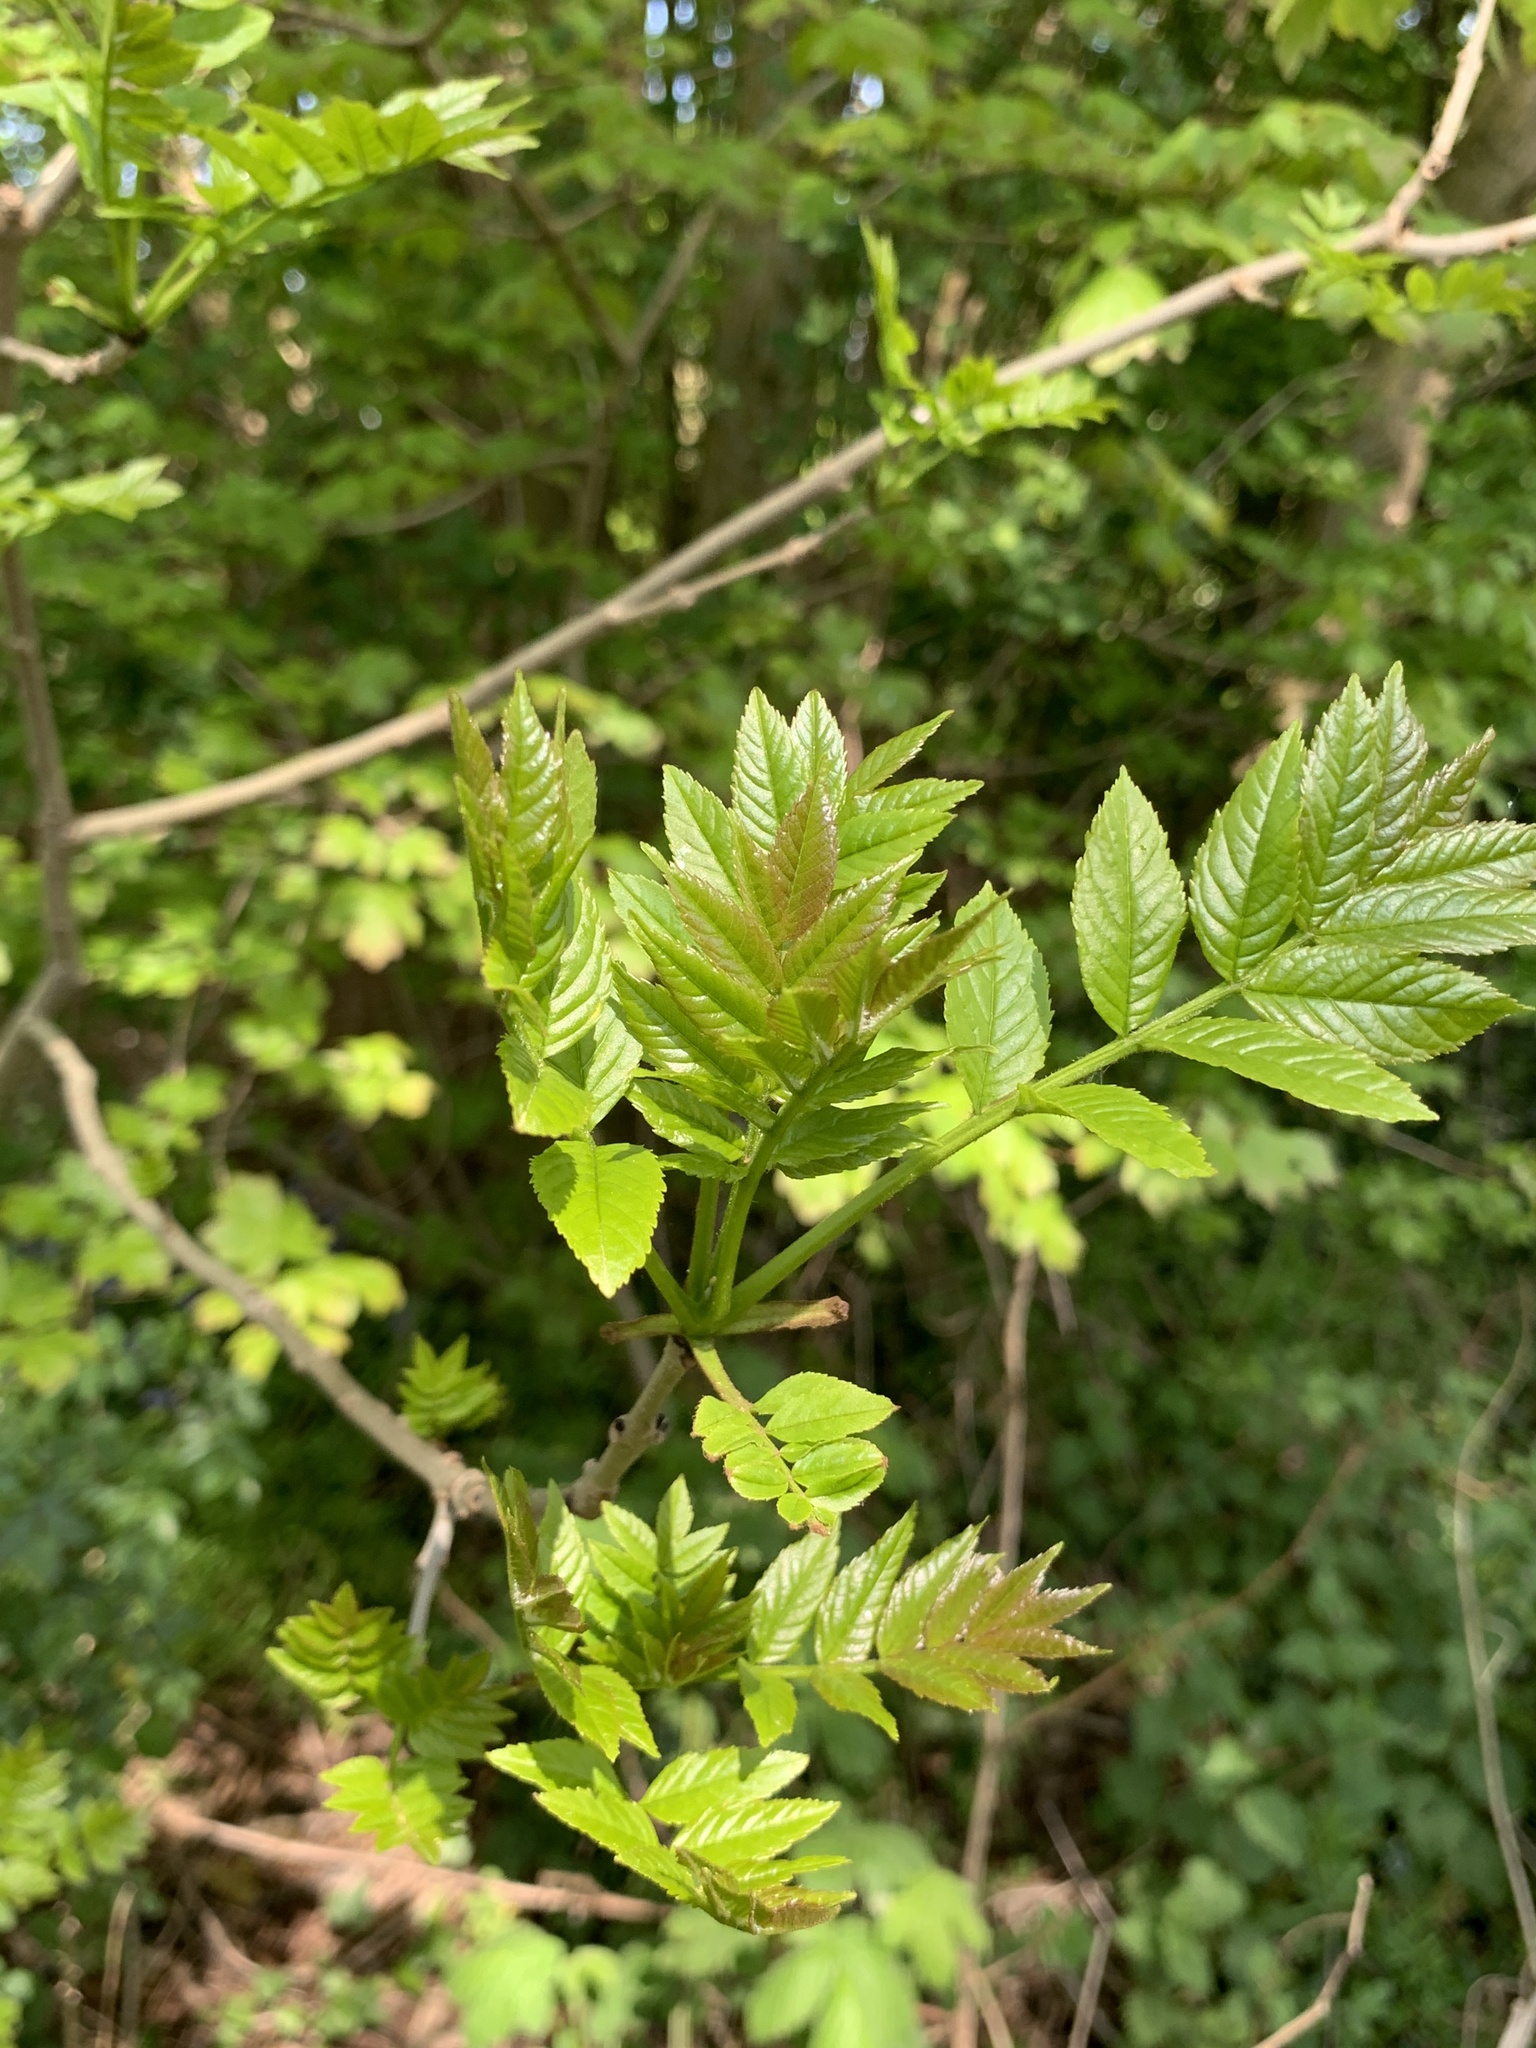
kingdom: Plantae
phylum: Tracheophyta
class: Magnoliopsida
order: Lamiales
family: Oleaceae
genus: Fraxinus
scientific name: Fraxinus excelsior
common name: European ash
